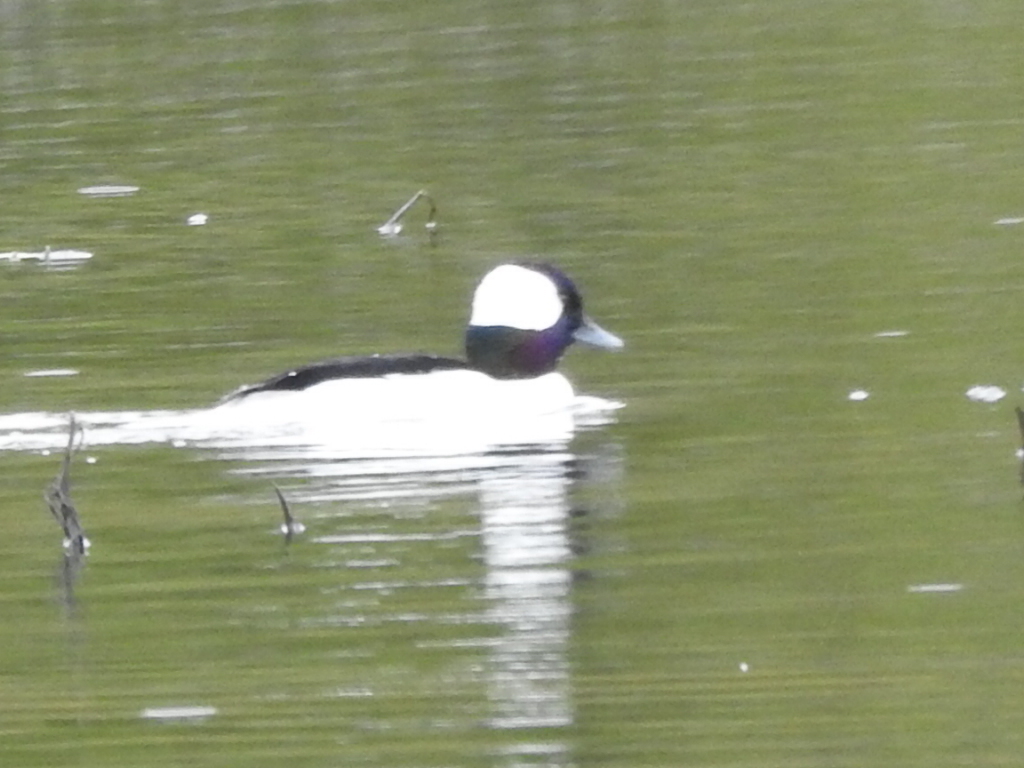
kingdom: Animalia
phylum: Chordata
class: Aves
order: Anseriformes
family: Anatidae
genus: Bucephala
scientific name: Bucephala albeola
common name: Bufflehead
